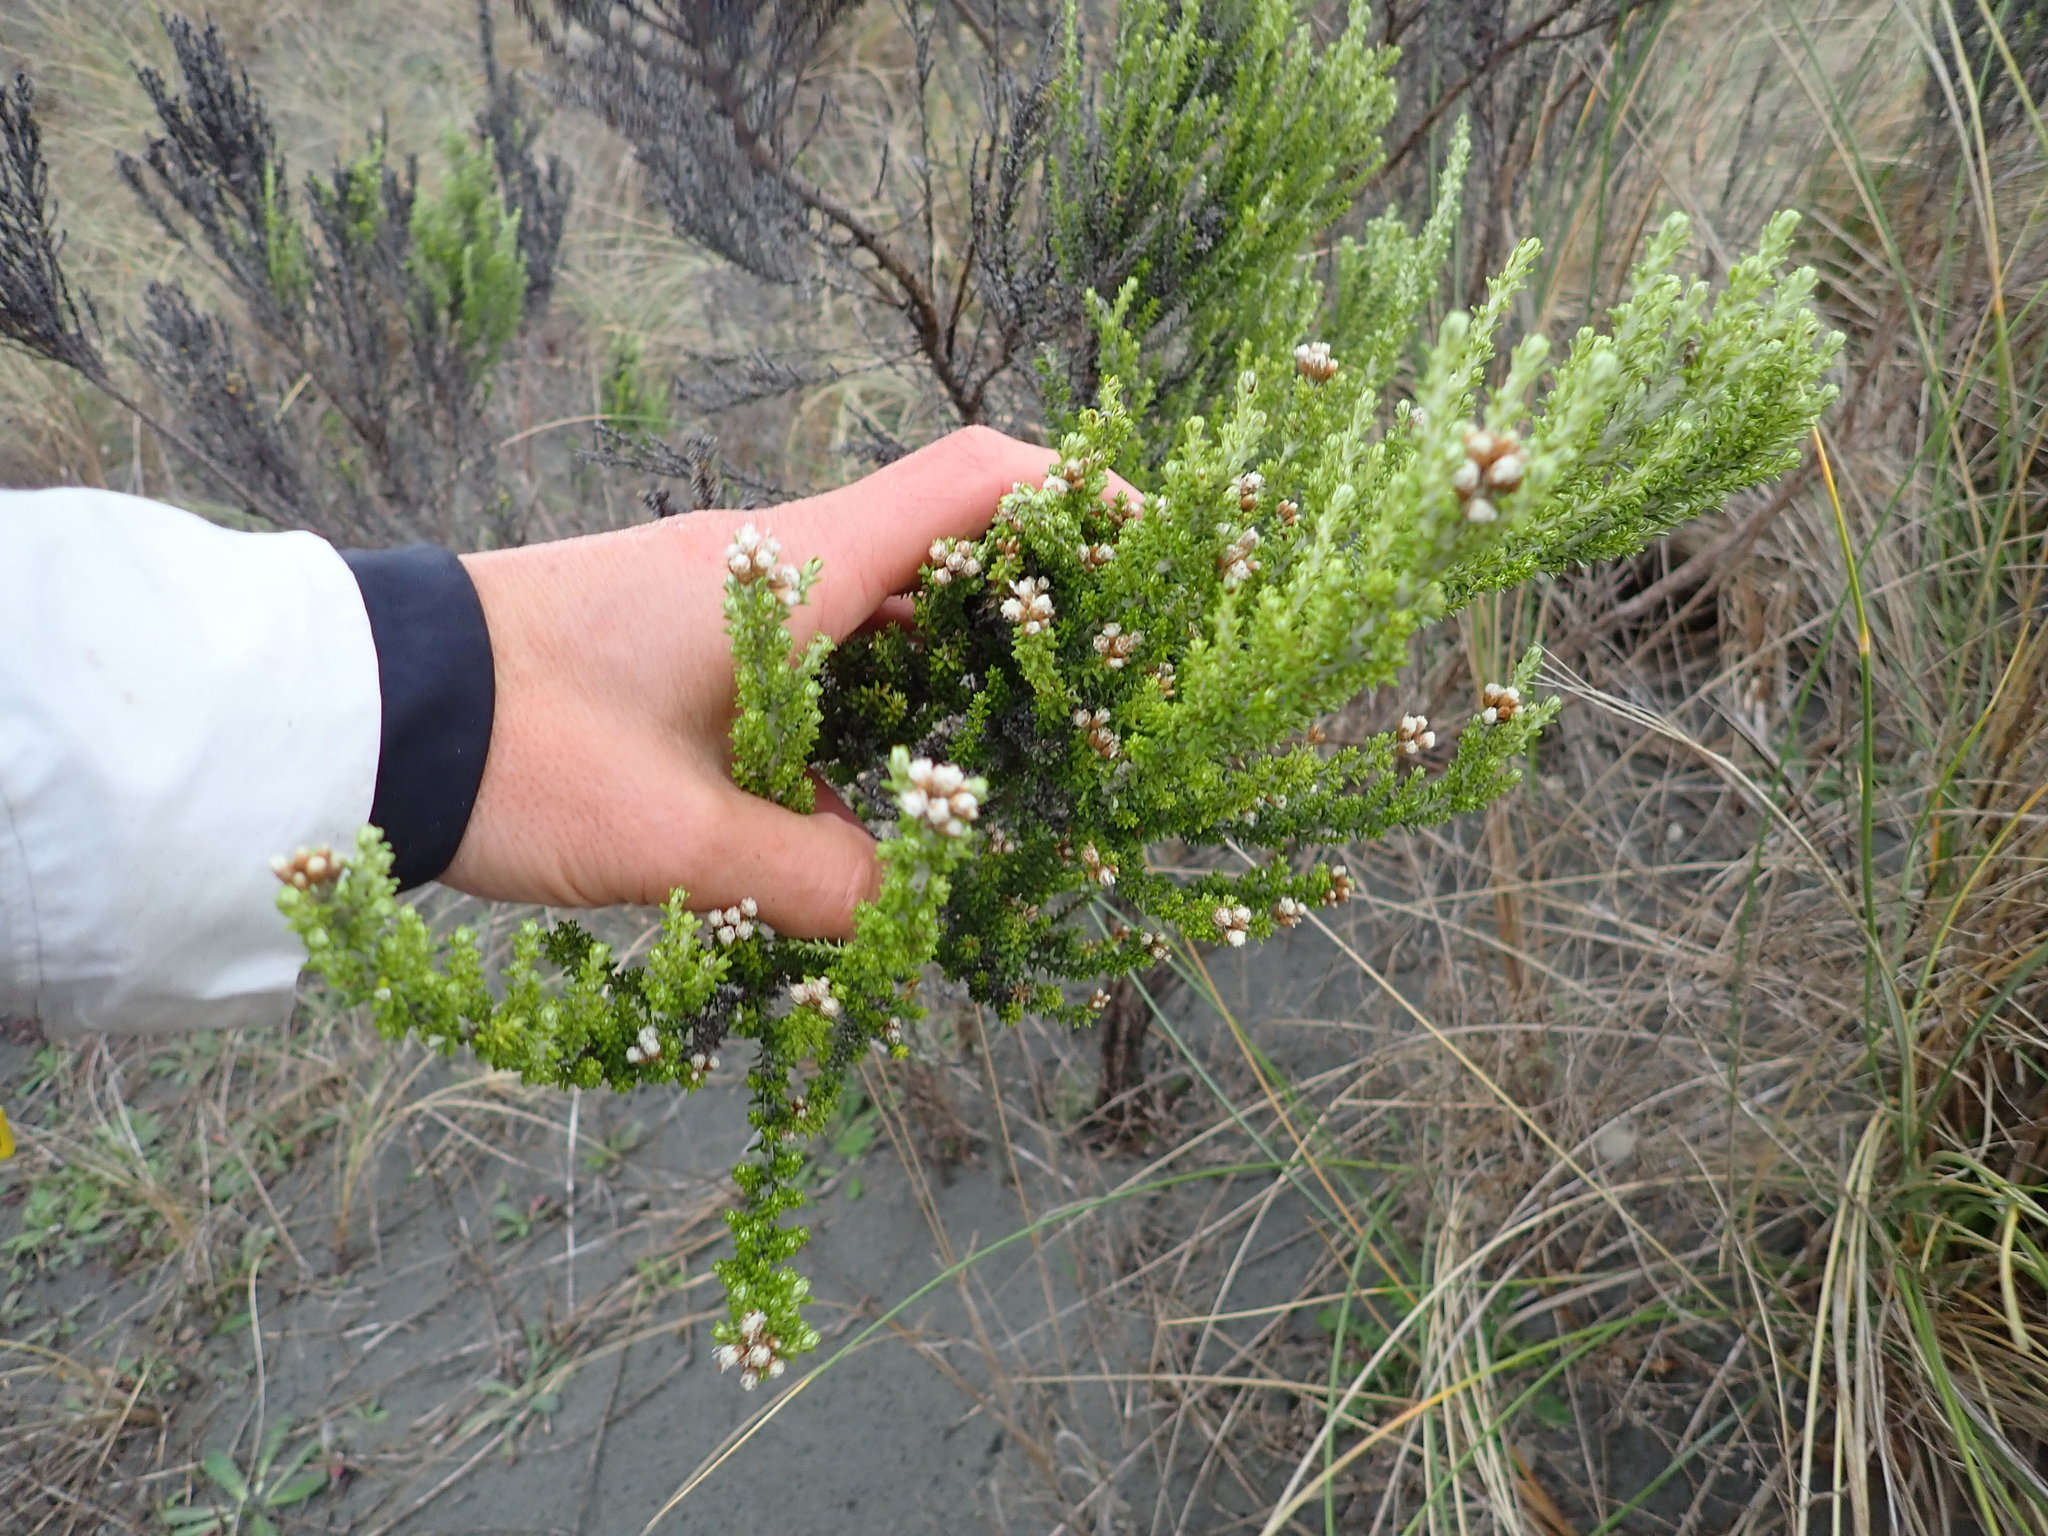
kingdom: Plantae
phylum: Tracheophyta
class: Magnoliopsida
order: Asterales
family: Asteraceae
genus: Ozothamnus
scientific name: Ozothamnus leptophyllus
